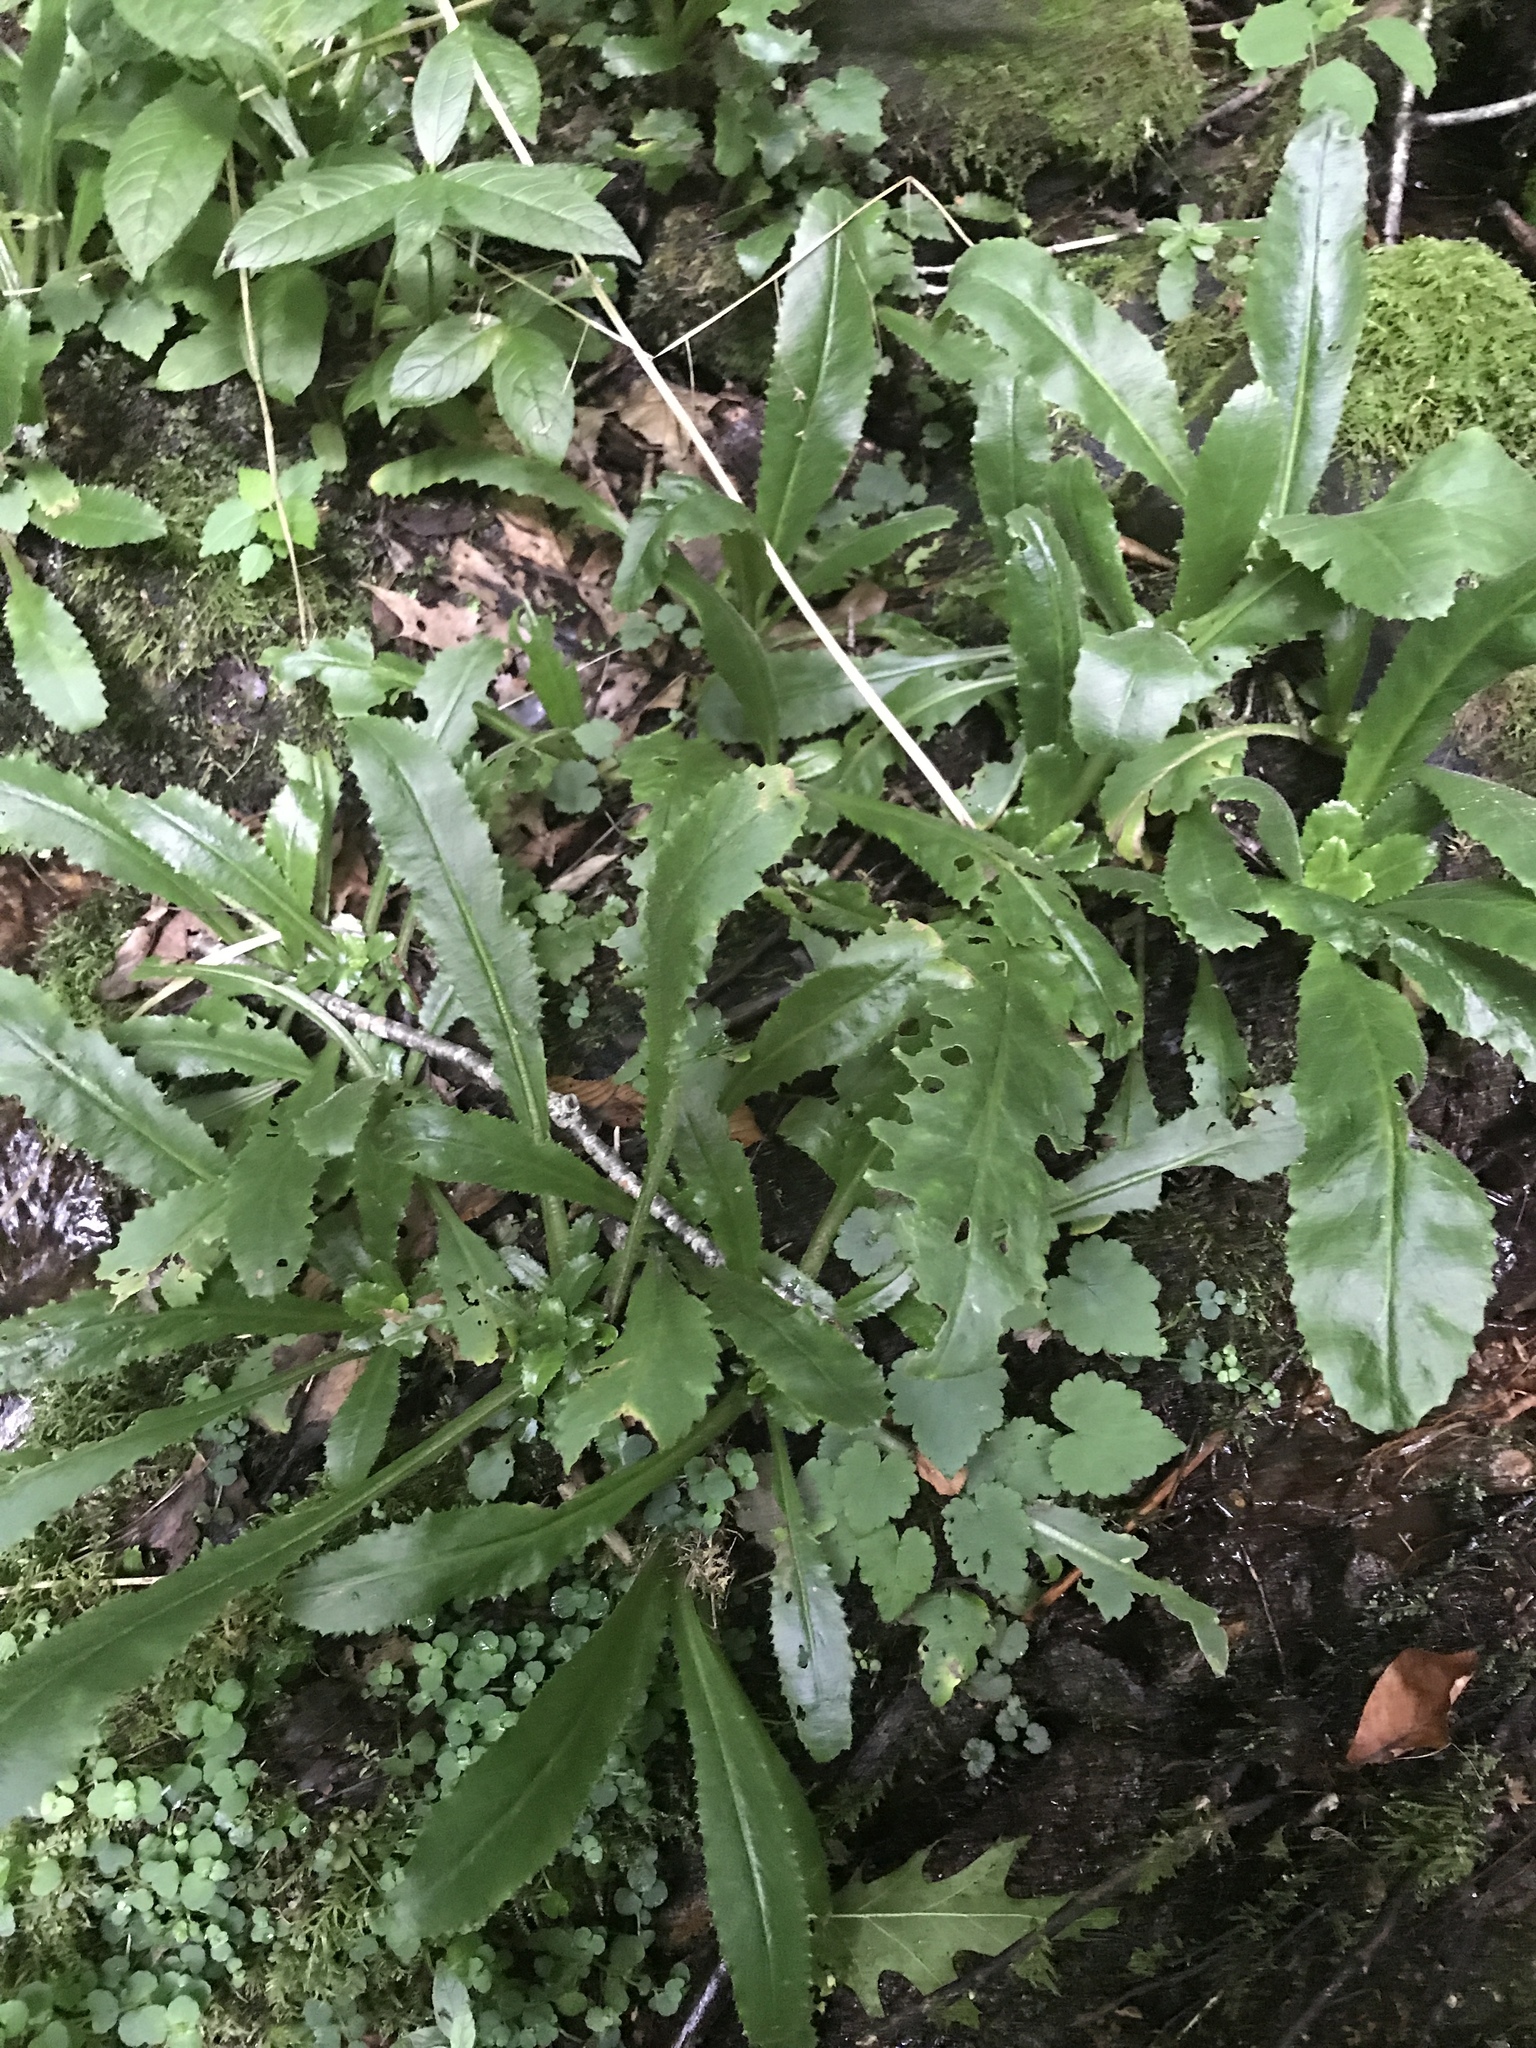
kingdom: Plantae
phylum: Tracheophyta
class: Magnoliopsida
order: Saxifragales
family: Saxifragaceae
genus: Micranthes
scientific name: Micranthes micranthidifolia
